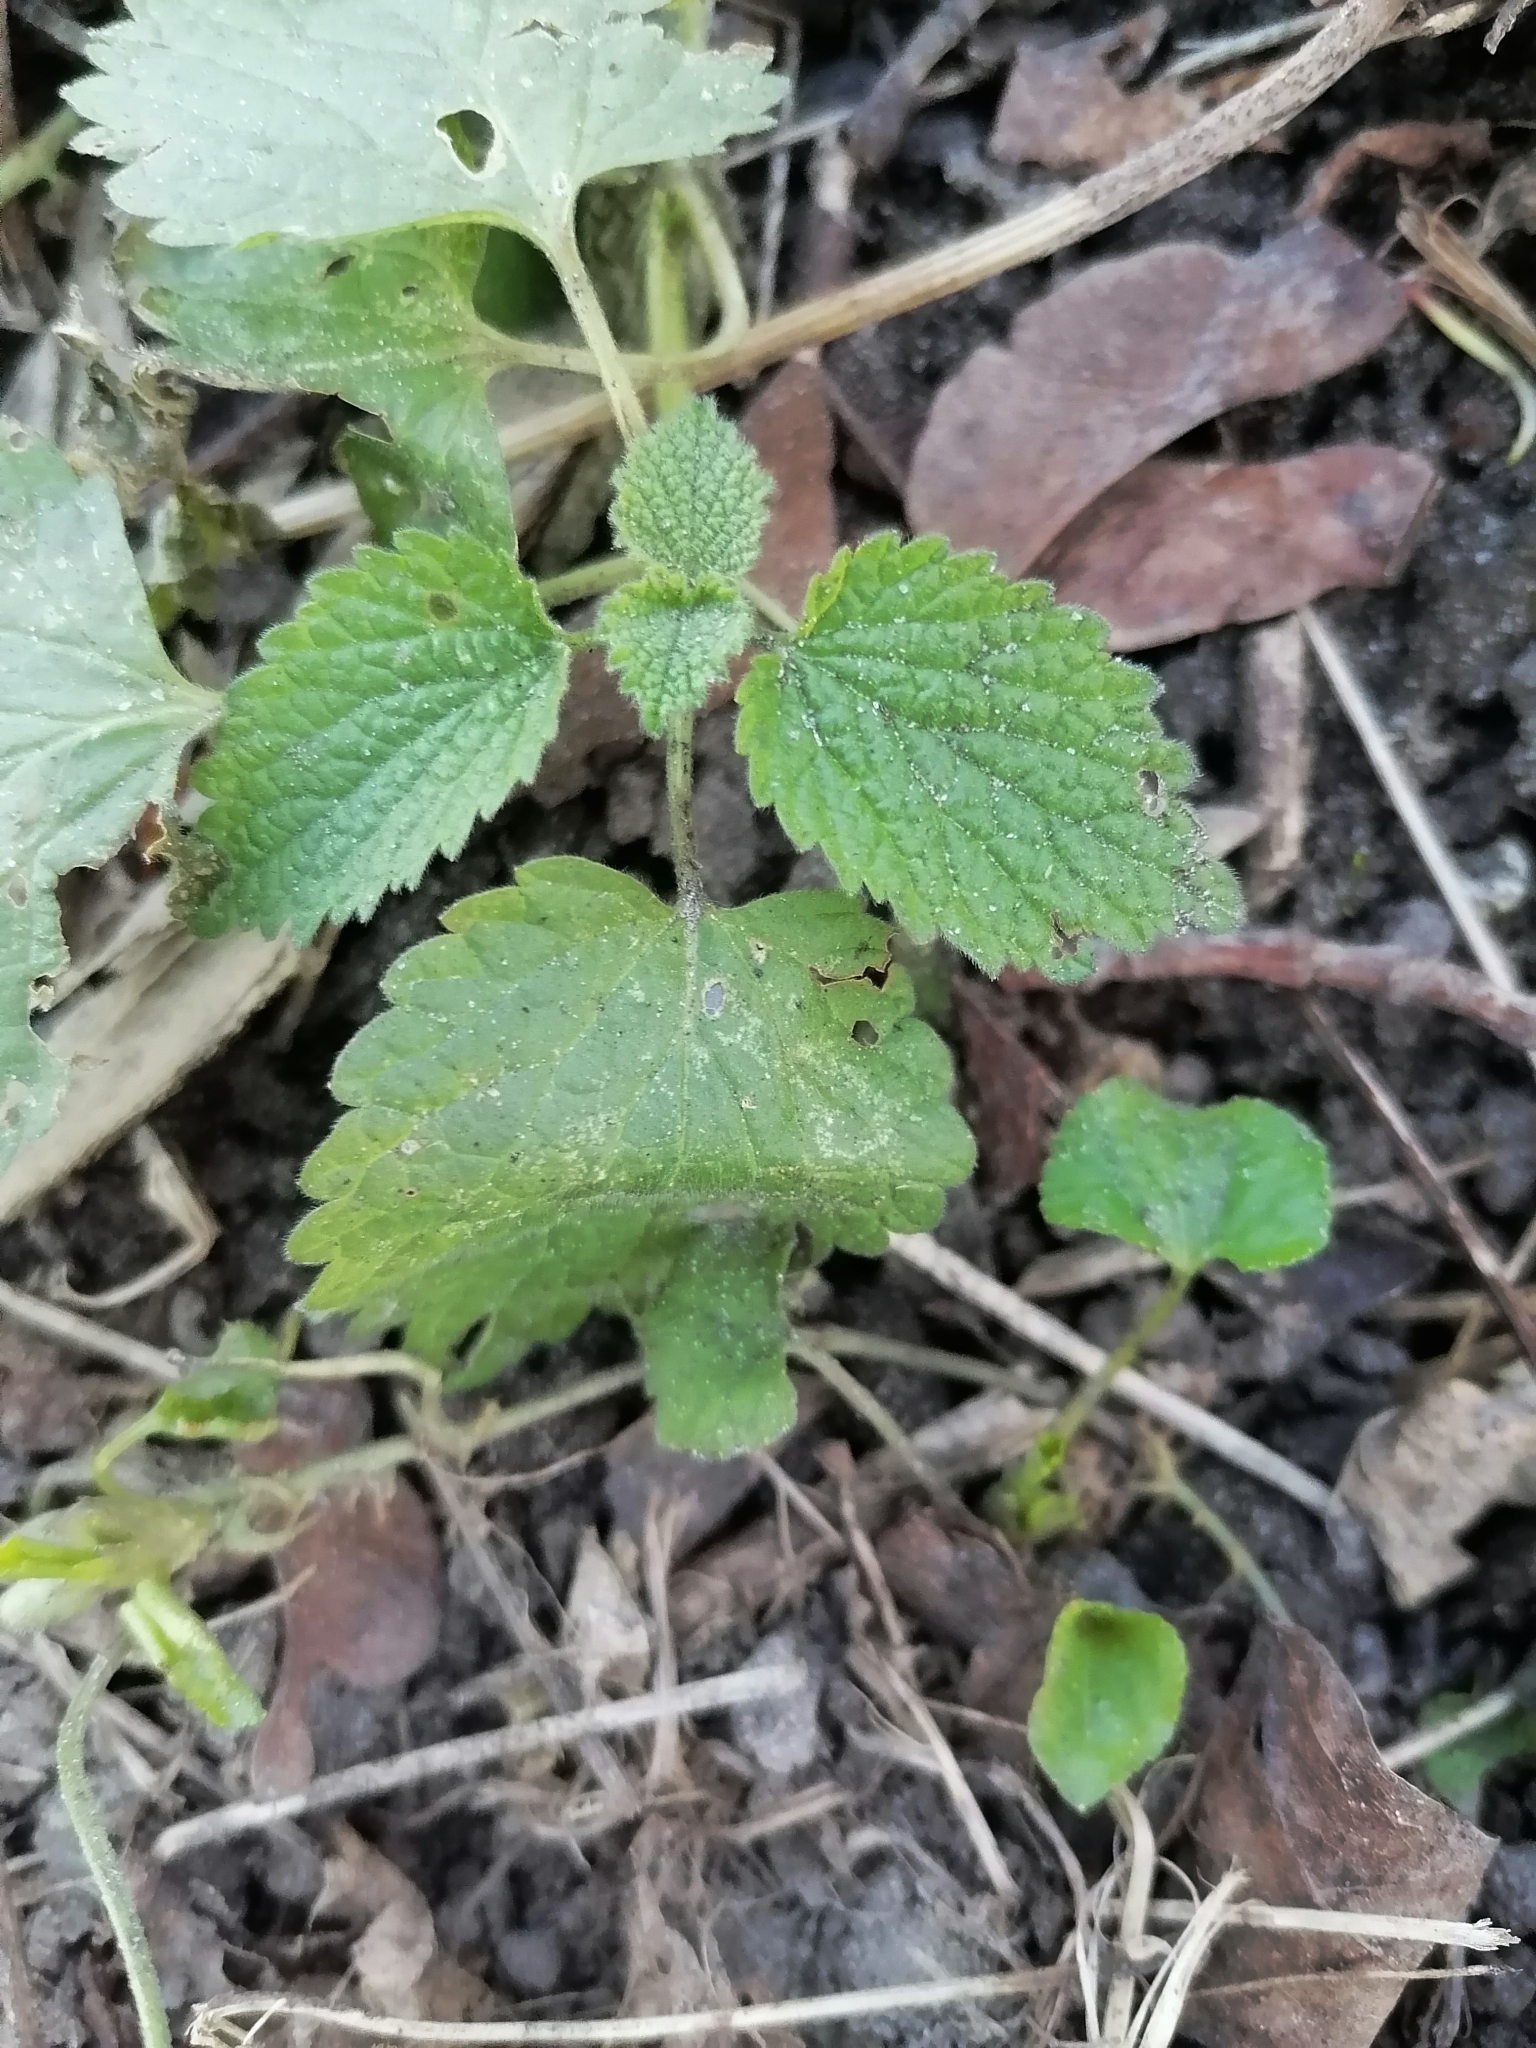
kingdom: Plantae
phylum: Tracheophyta
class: Magnoliopsida
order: Lamiales
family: Lamiaceae
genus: Ballota
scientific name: Ballota nigra
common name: Black horehound
